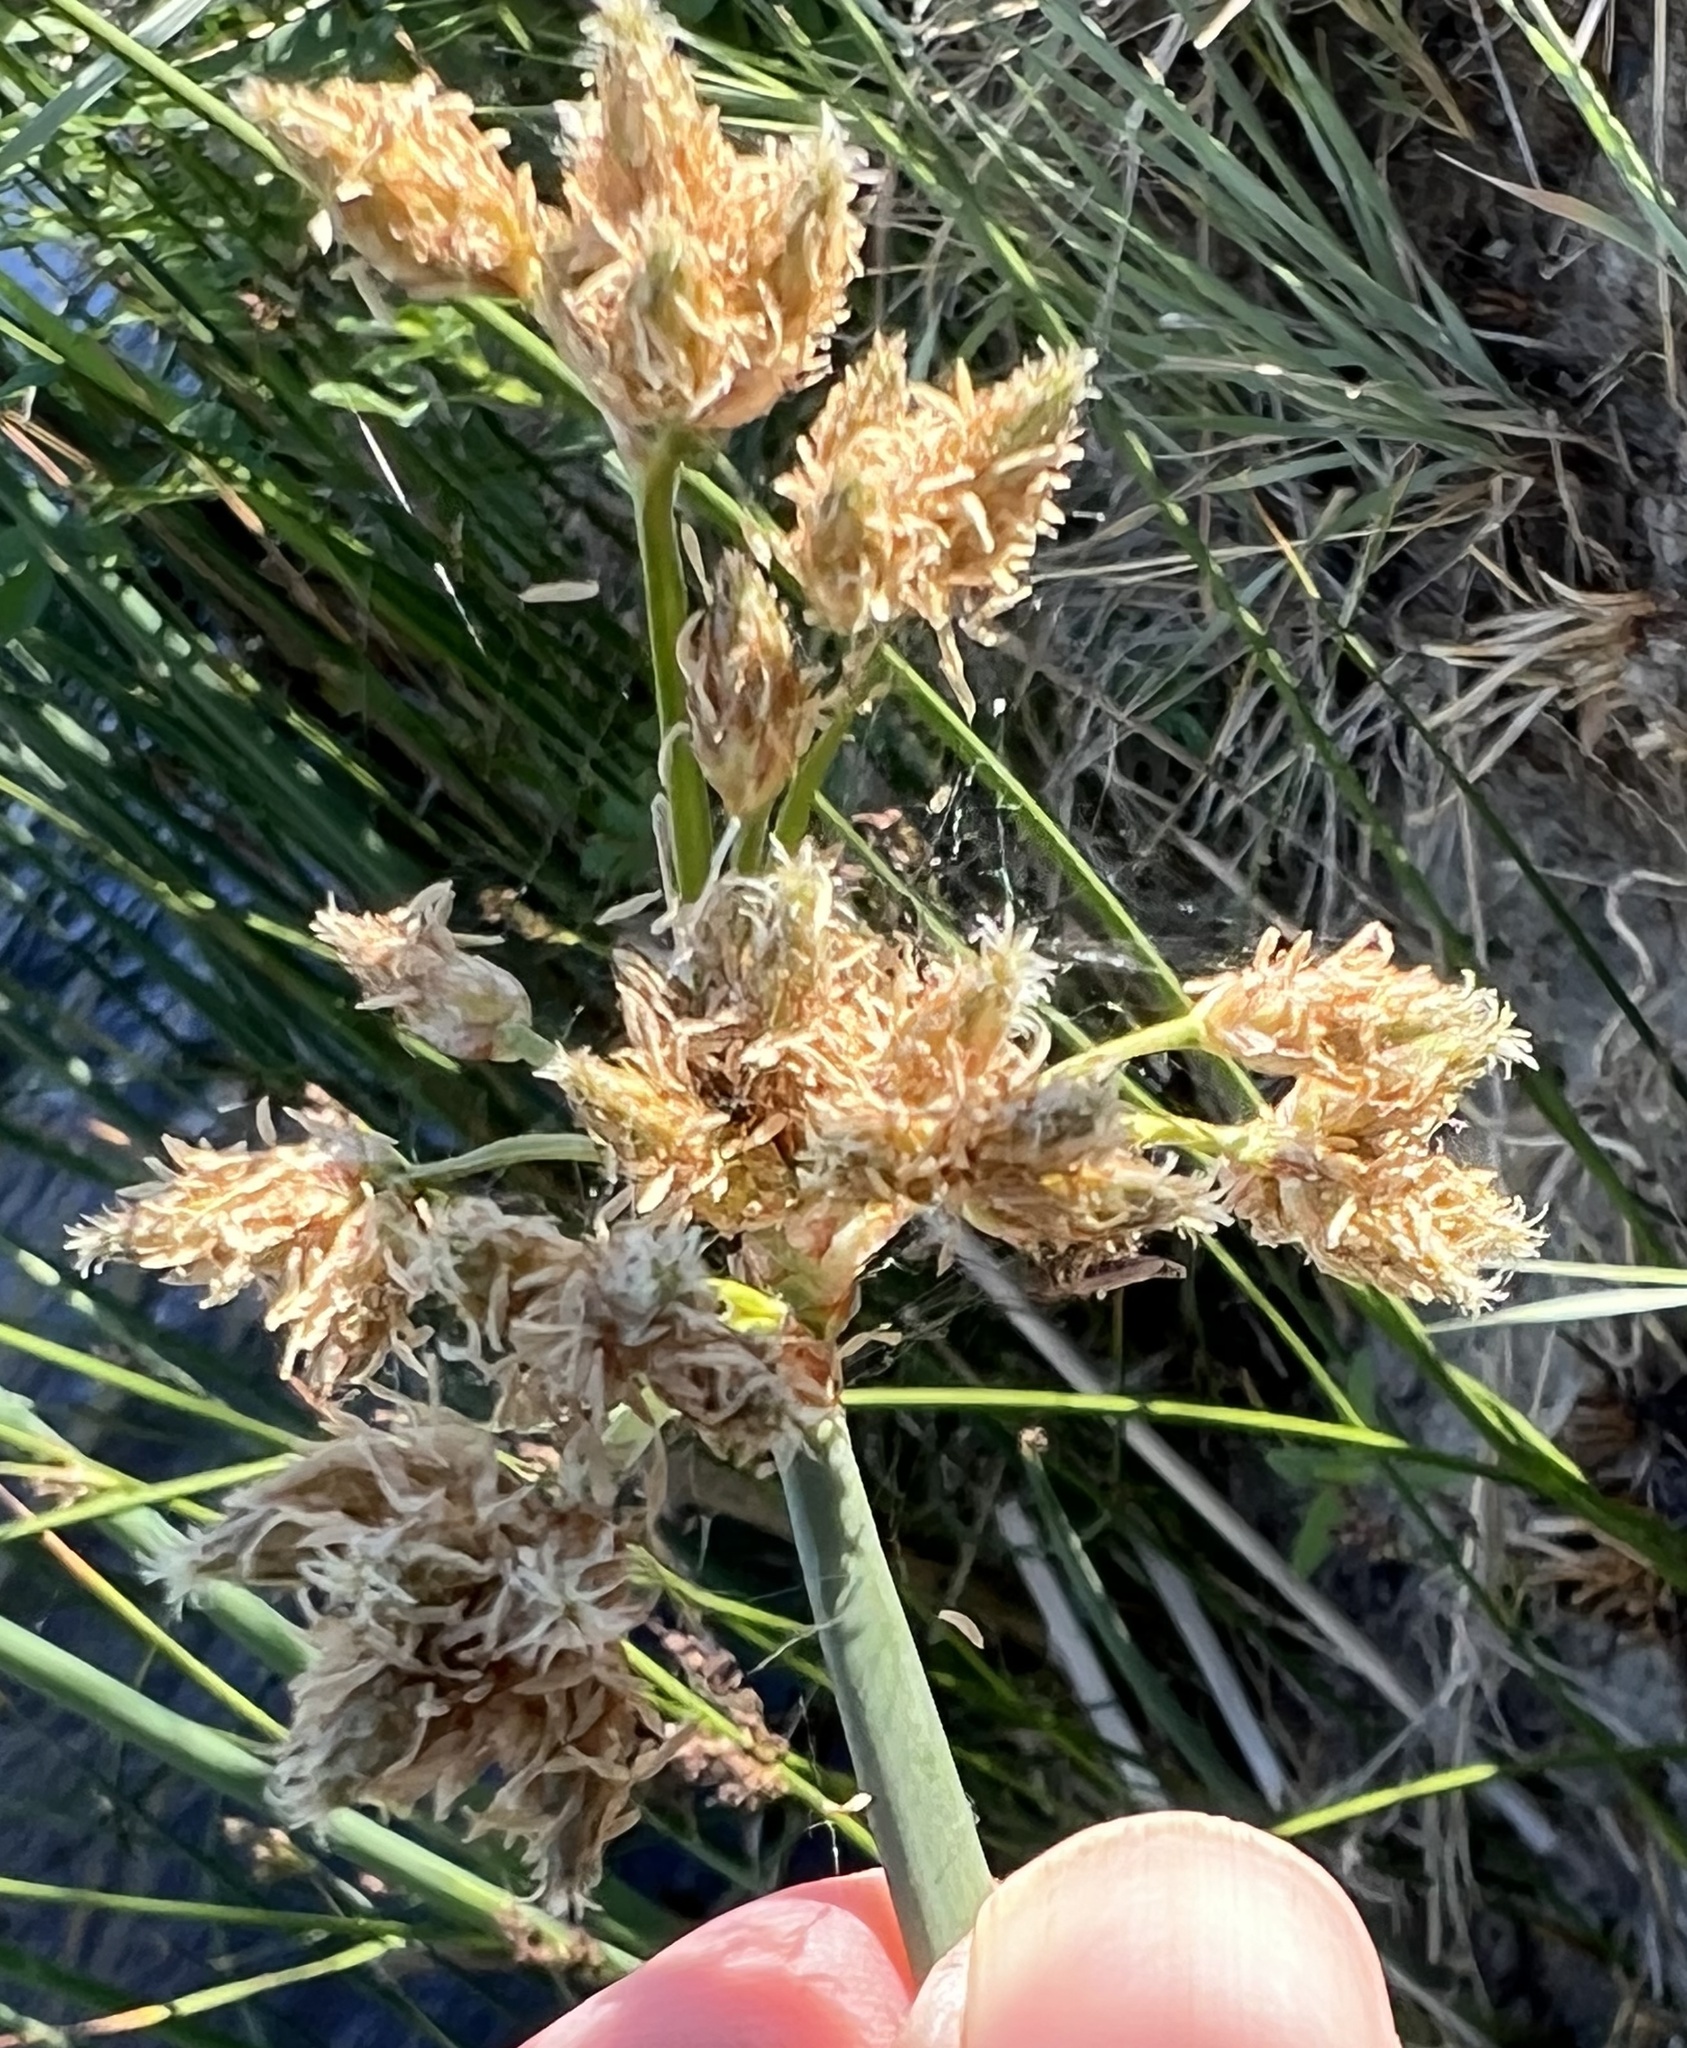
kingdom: Plantae
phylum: Tracheophyta
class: Liliopsida
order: Poales
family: Cyperaceae
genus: Schoenoplectus
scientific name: Schoenoplectus acutus
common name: Hardstem bulrush
